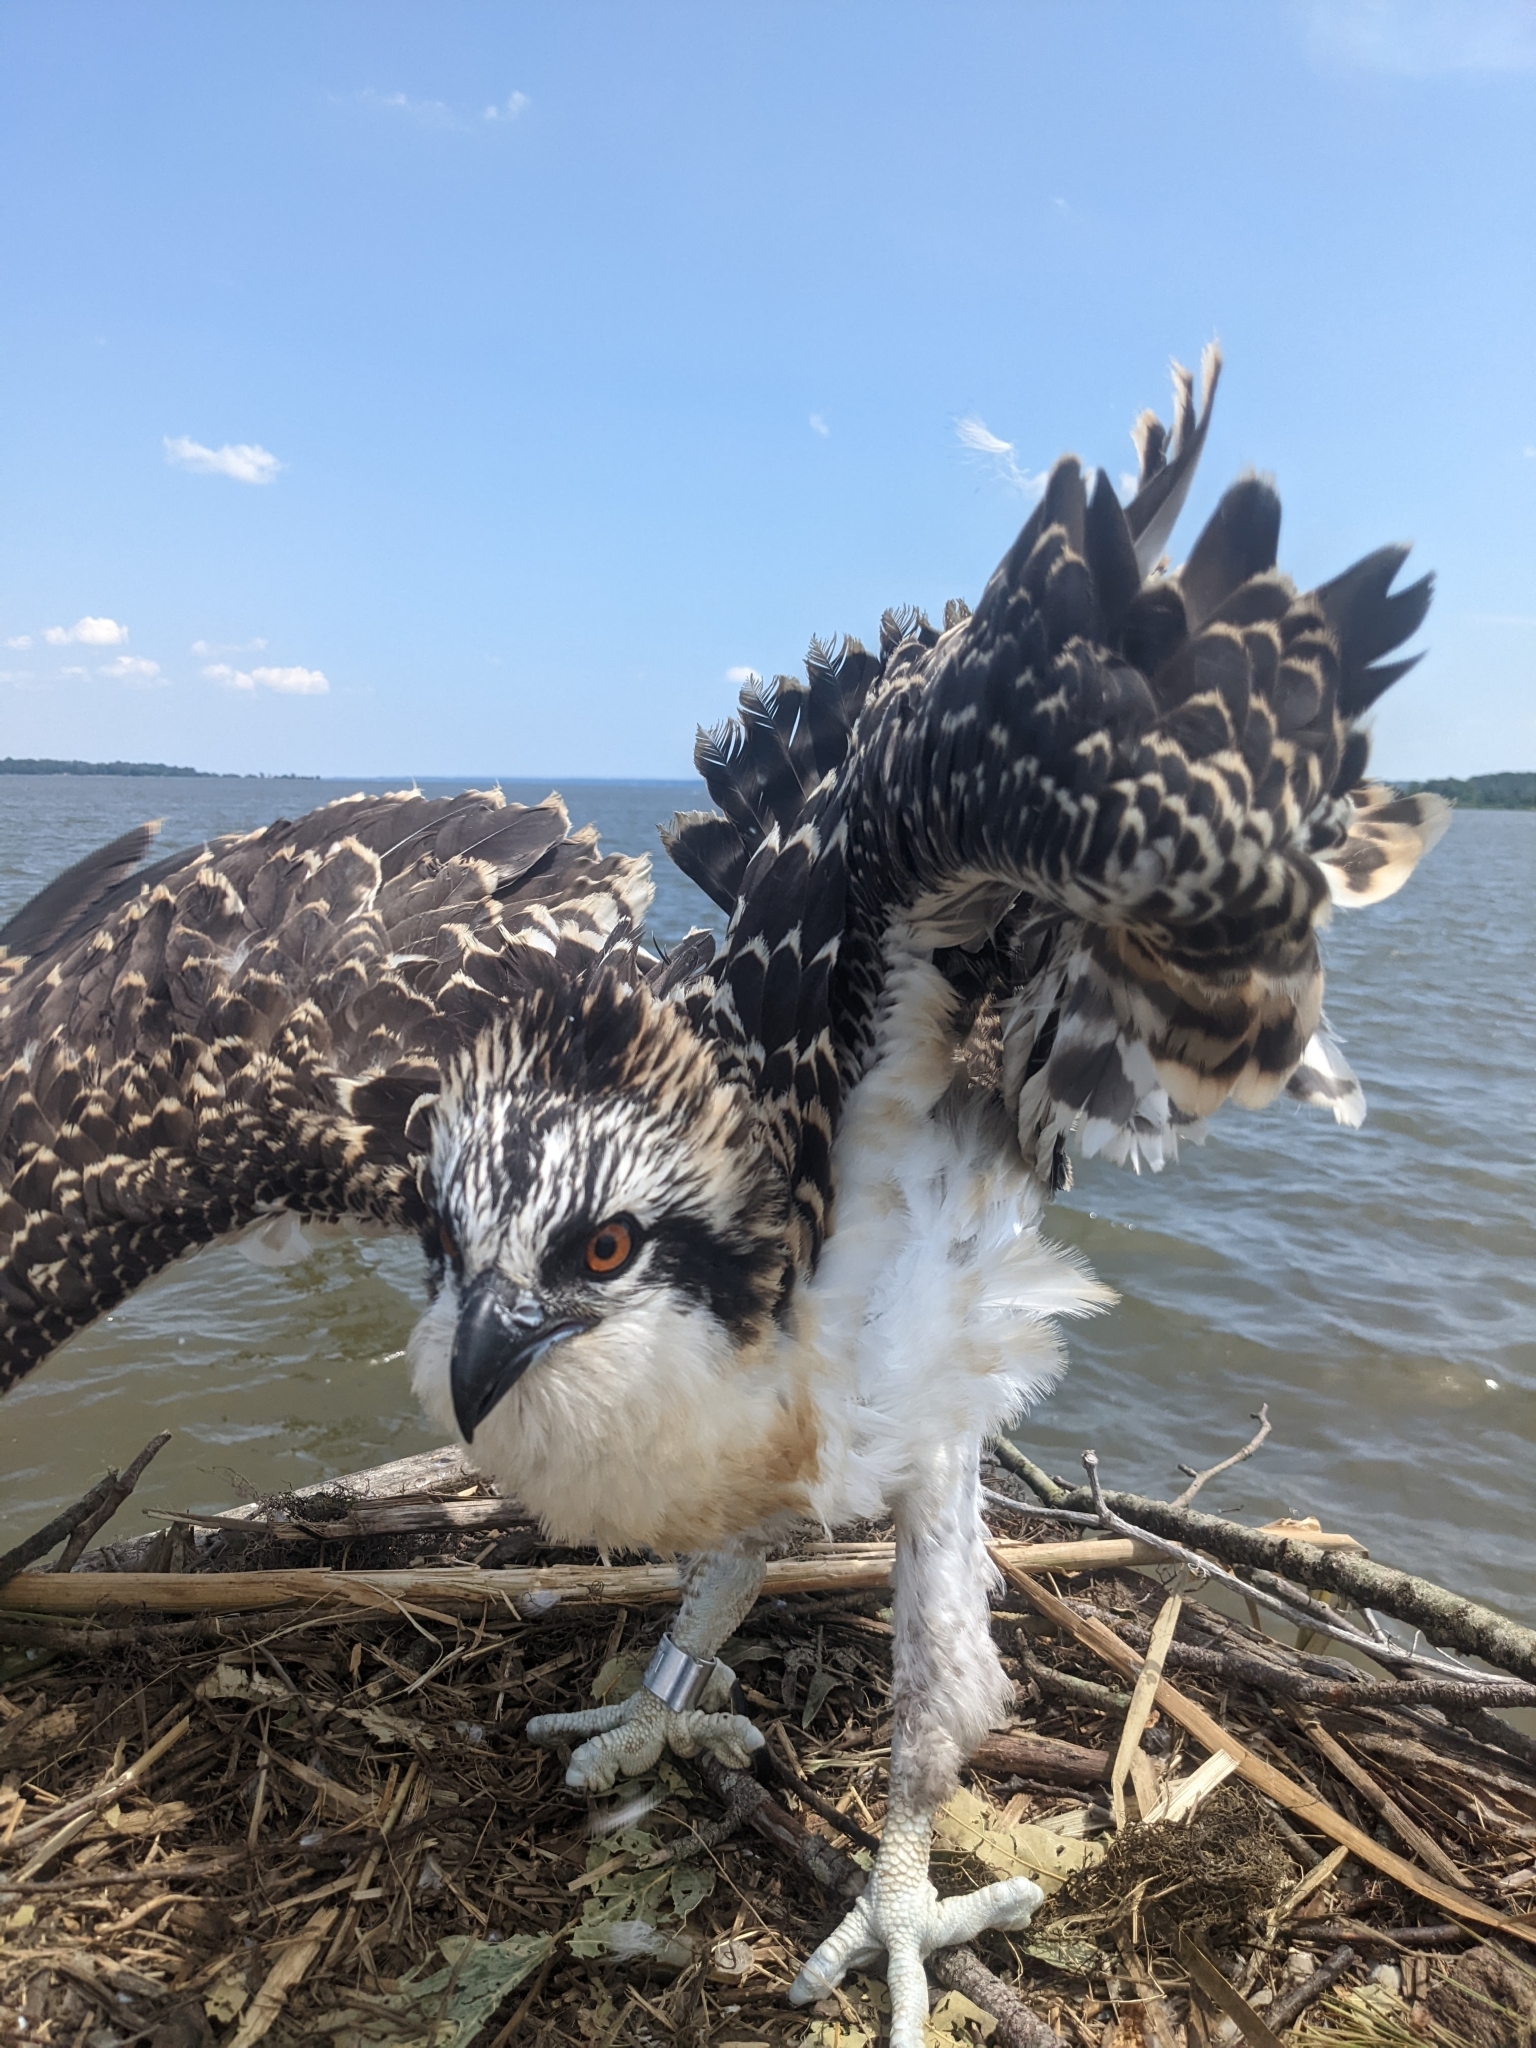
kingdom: Animalia
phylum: Chordata
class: Aves
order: Accipitriformes
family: Pandionidae
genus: Pandion
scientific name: Pandion haliaetus
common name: Osprey
